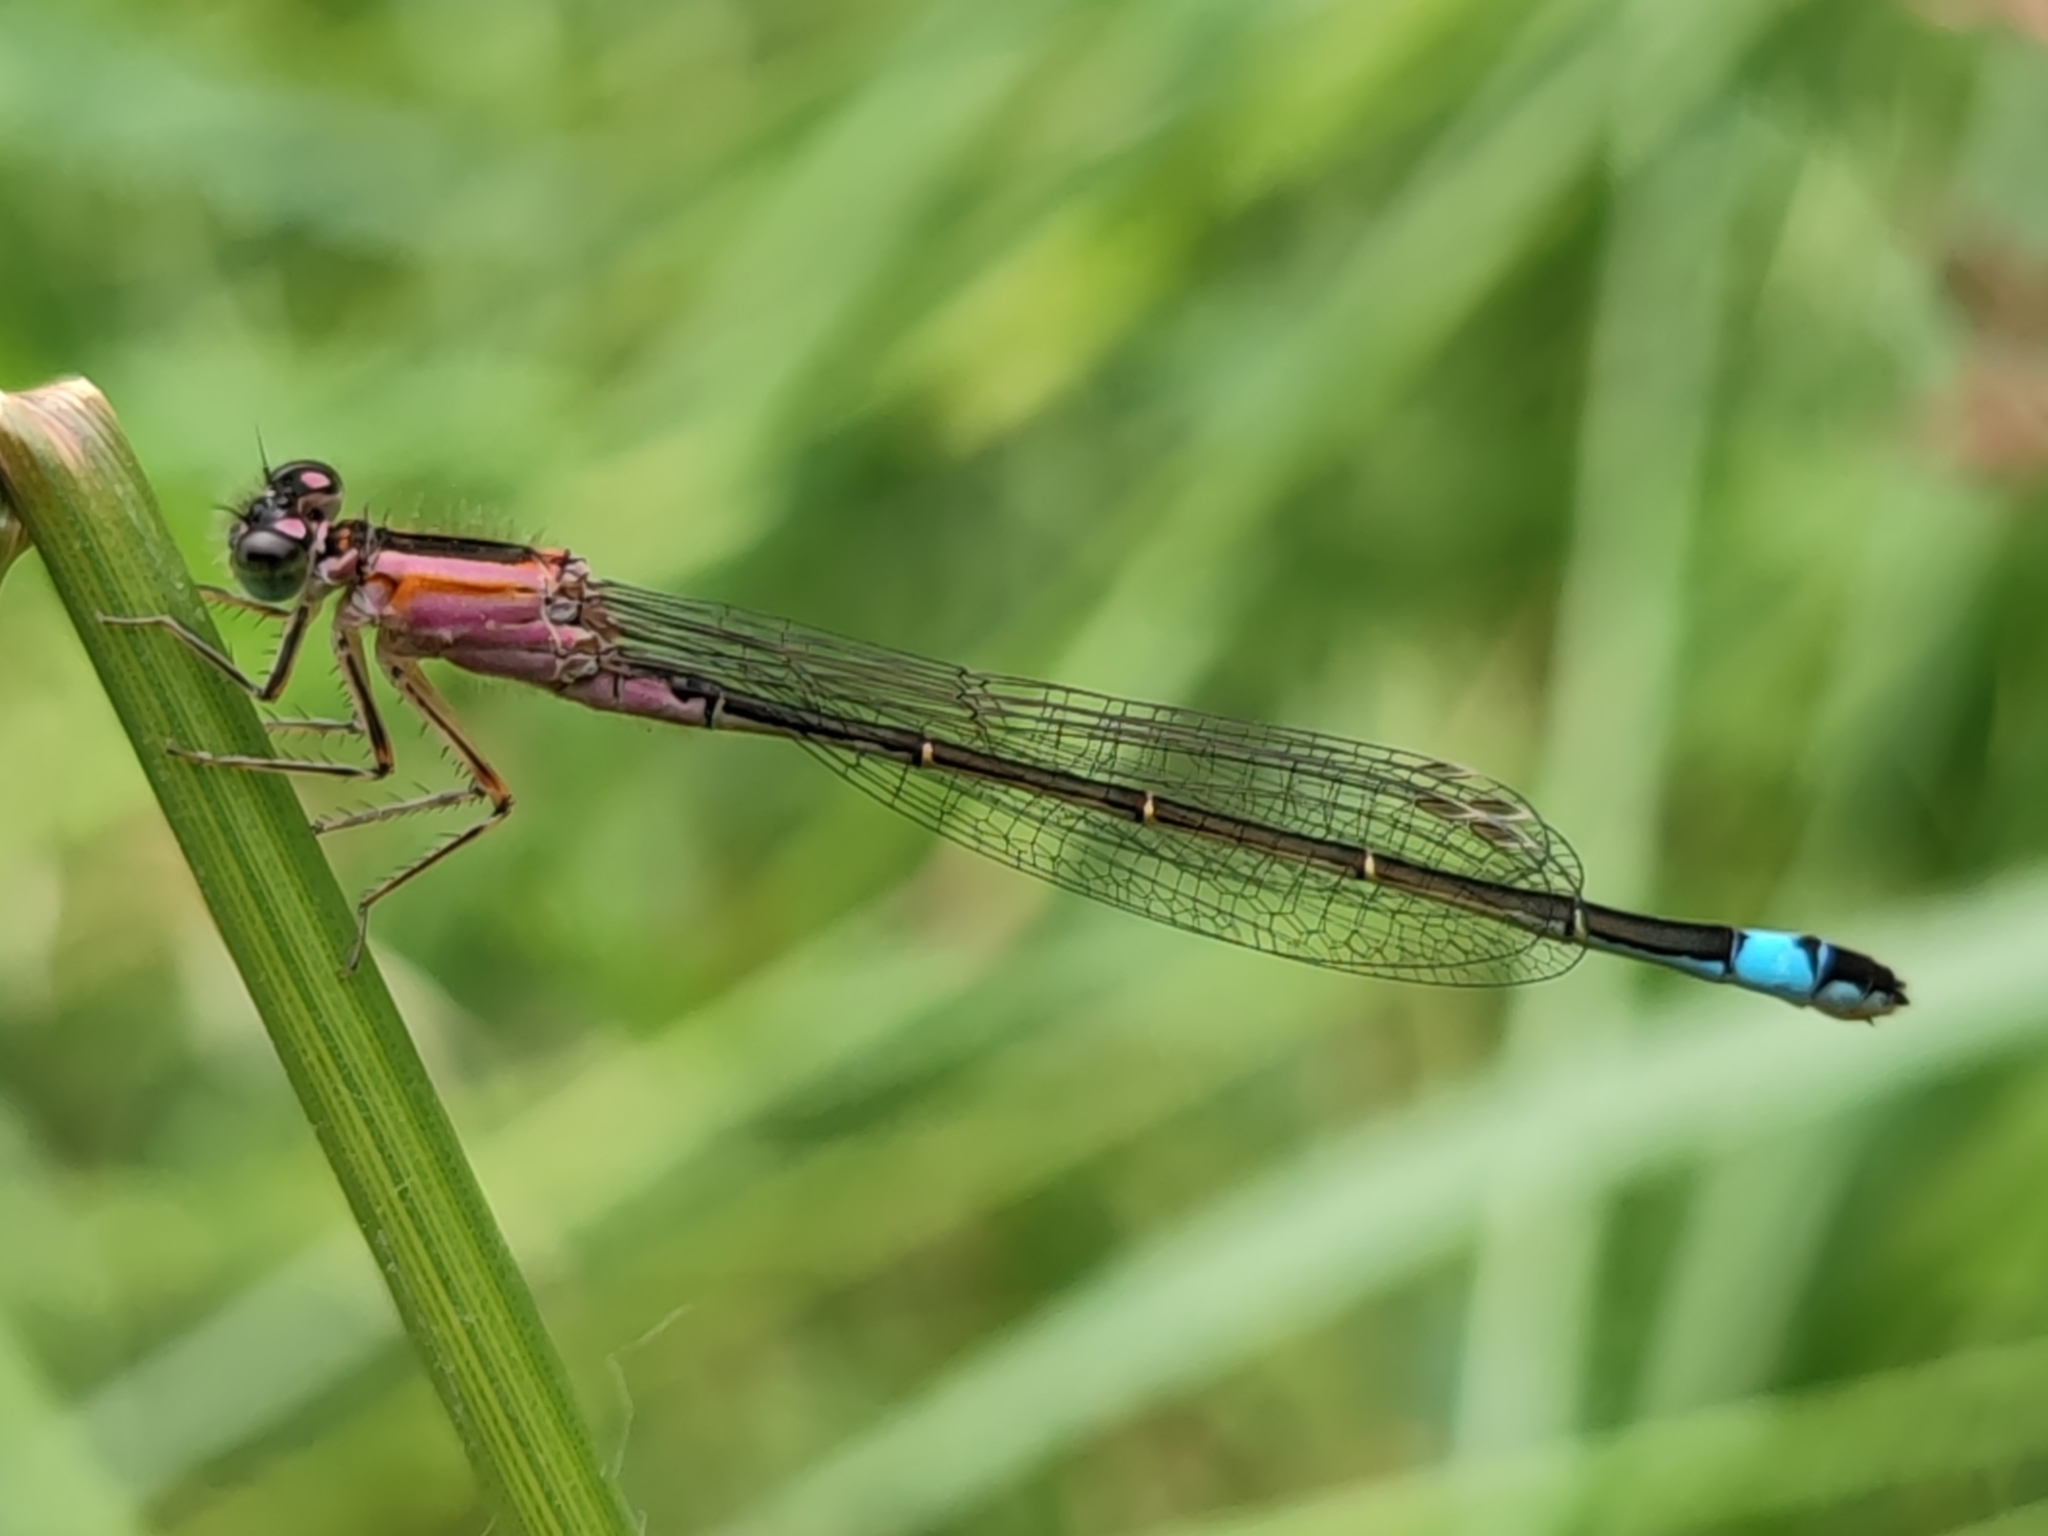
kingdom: Animalia
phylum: Arthropoda
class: Insecta
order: Odonata
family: Coenagrionidae
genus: Ischnura
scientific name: Ischnura elegans
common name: Blue-tailed damselfly
